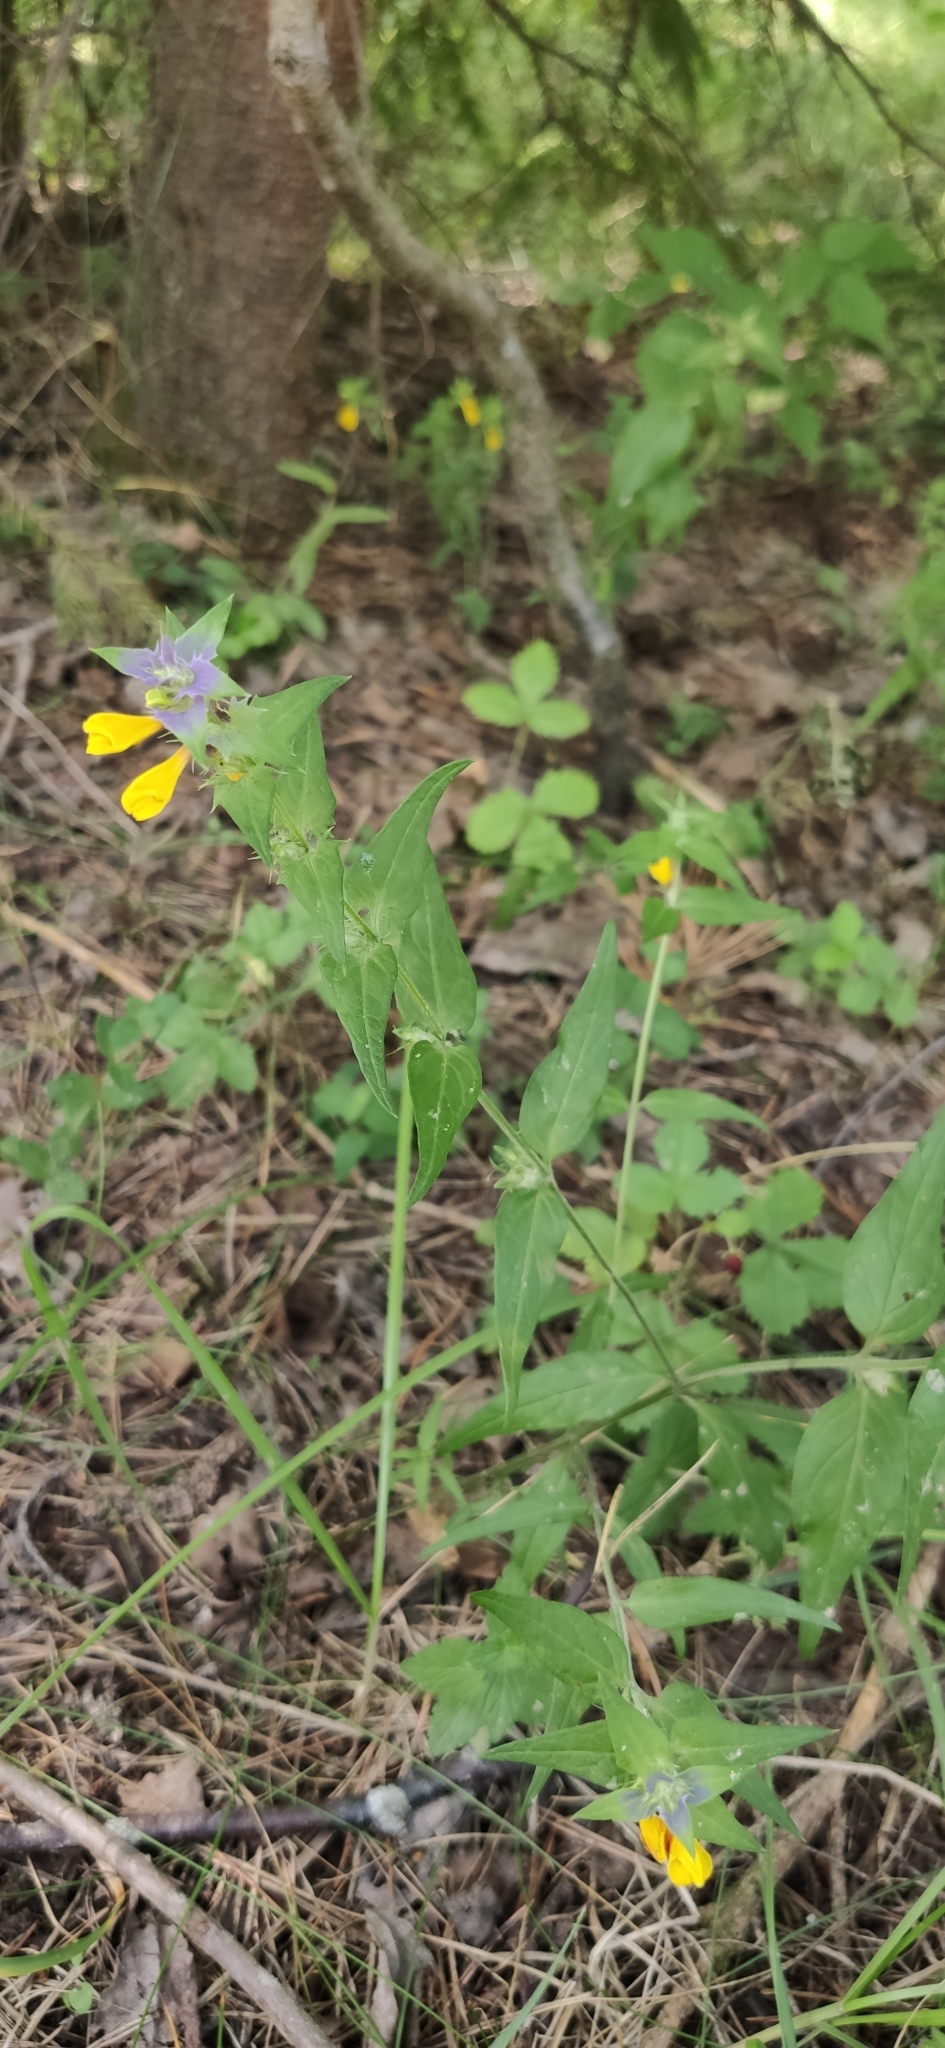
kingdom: Plantae
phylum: Tracheophyta
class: Magnoliopsida
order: Lamiales
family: Orobanchaceae
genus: Melampyrum
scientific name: Melampyrum nemorosum
